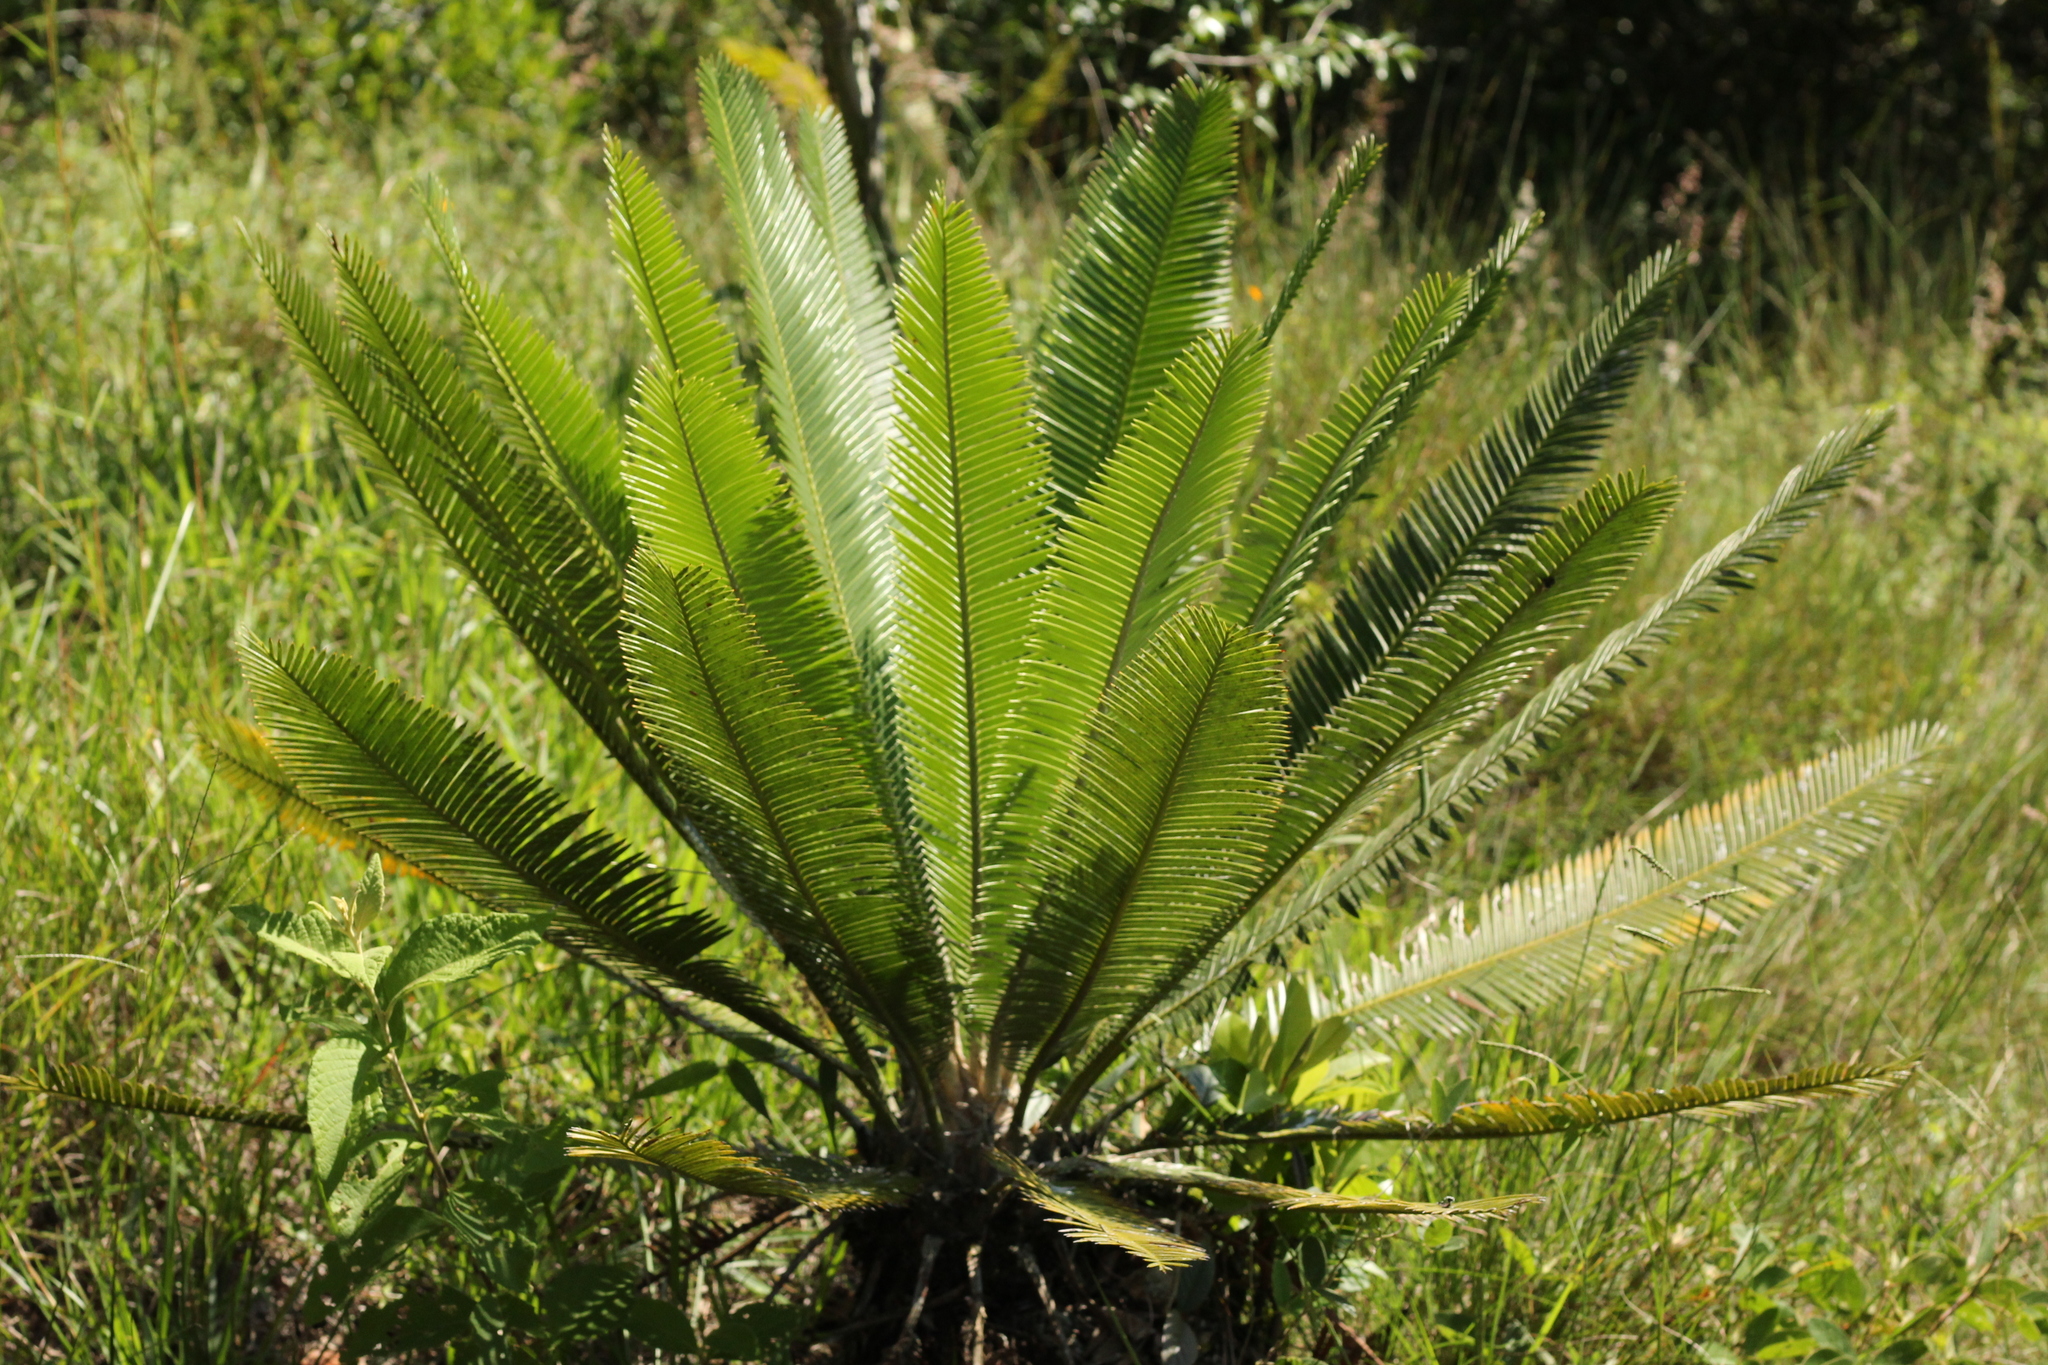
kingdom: Plantae
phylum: Tracheophyta
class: Cycadopsida
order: Cycadales
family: Zamiaceae
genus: Dioon
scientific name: Dioon edule
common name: Edible-seed cycas
